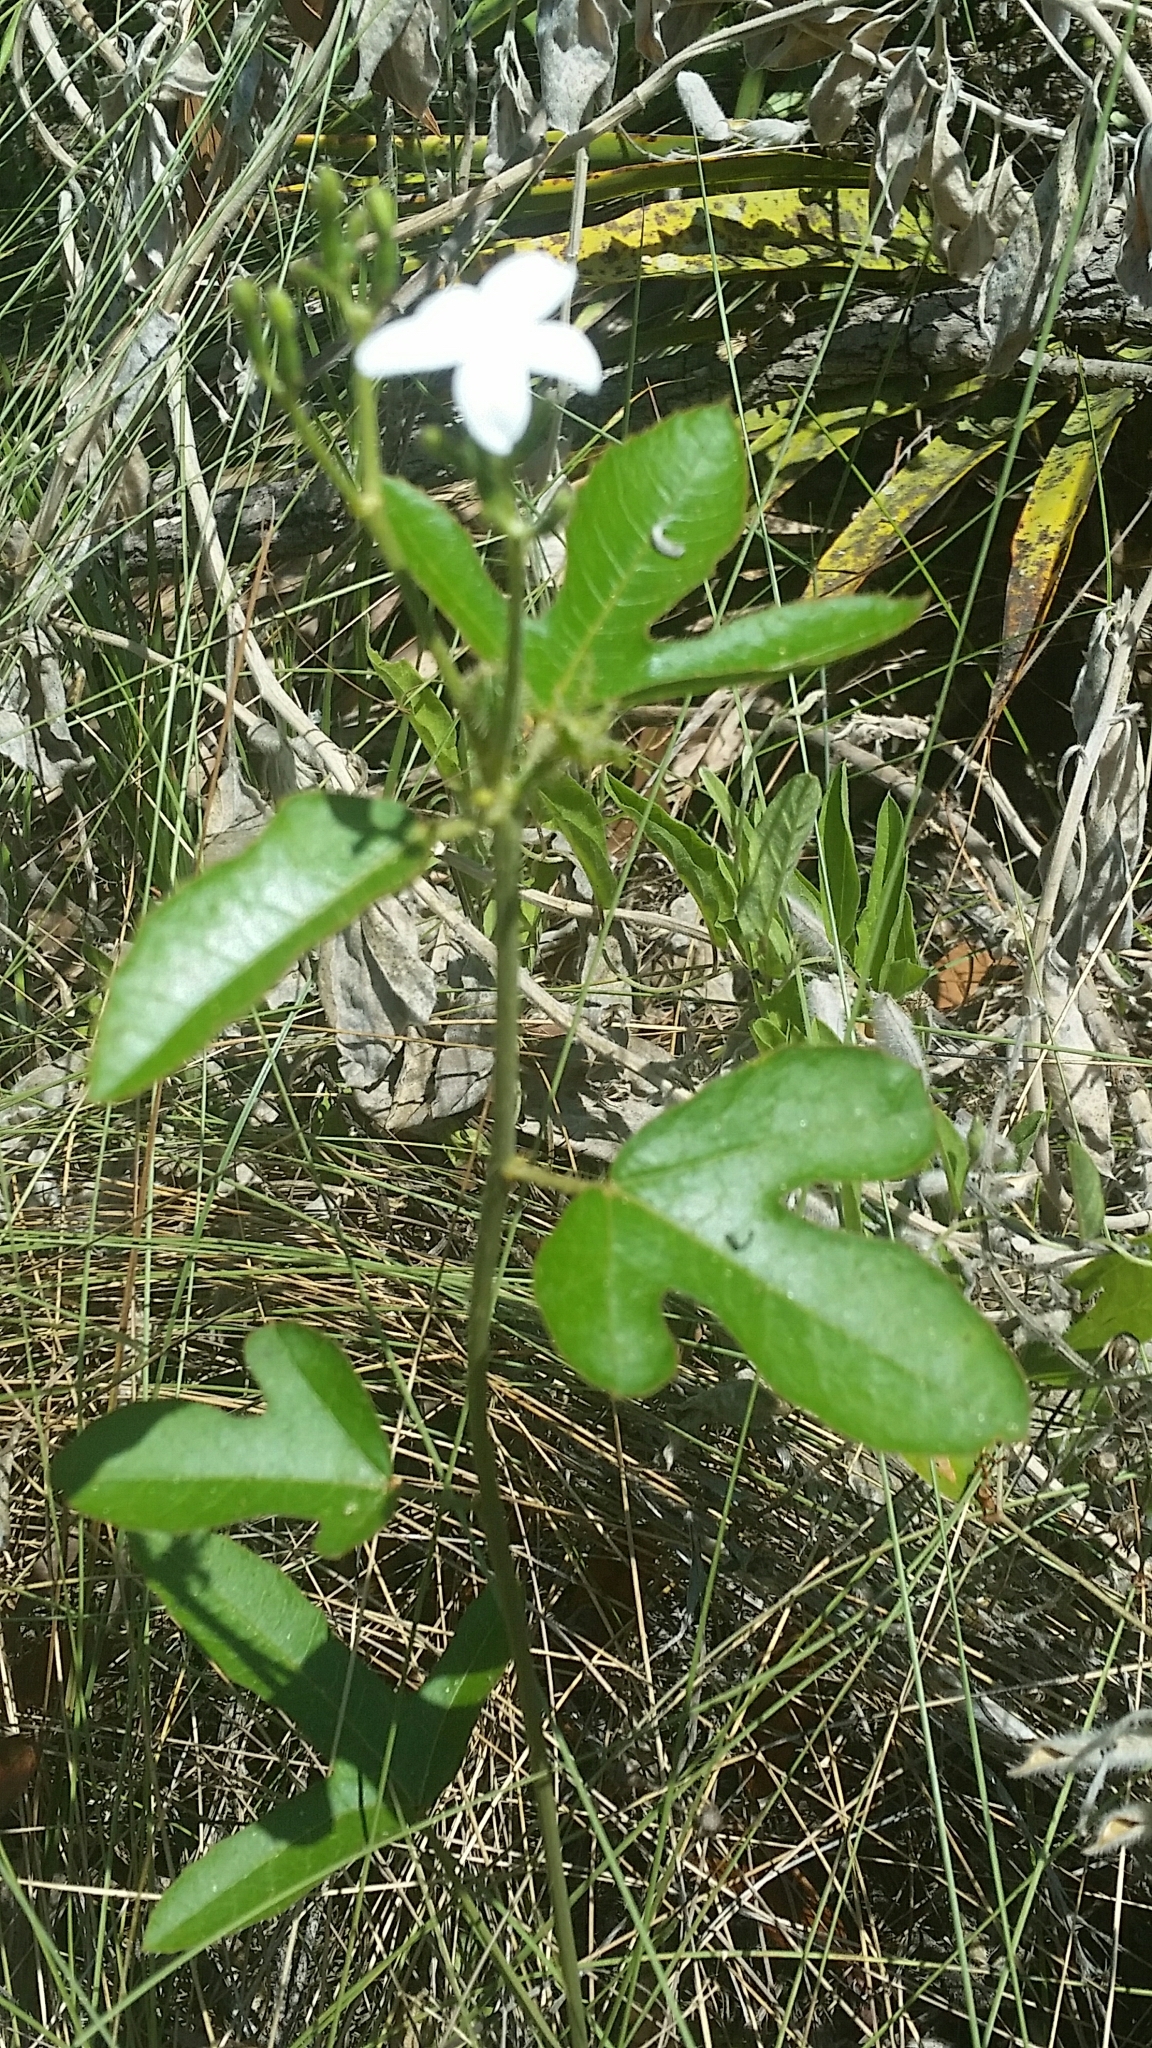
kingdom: Plantae
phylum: Tracheophyta
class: Magnoliopsida
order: Malpighiales
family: Euphorbiaceae
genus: Cnidoscolus
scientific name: Cnidoscolus stimulosus
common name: Bull-nettle
